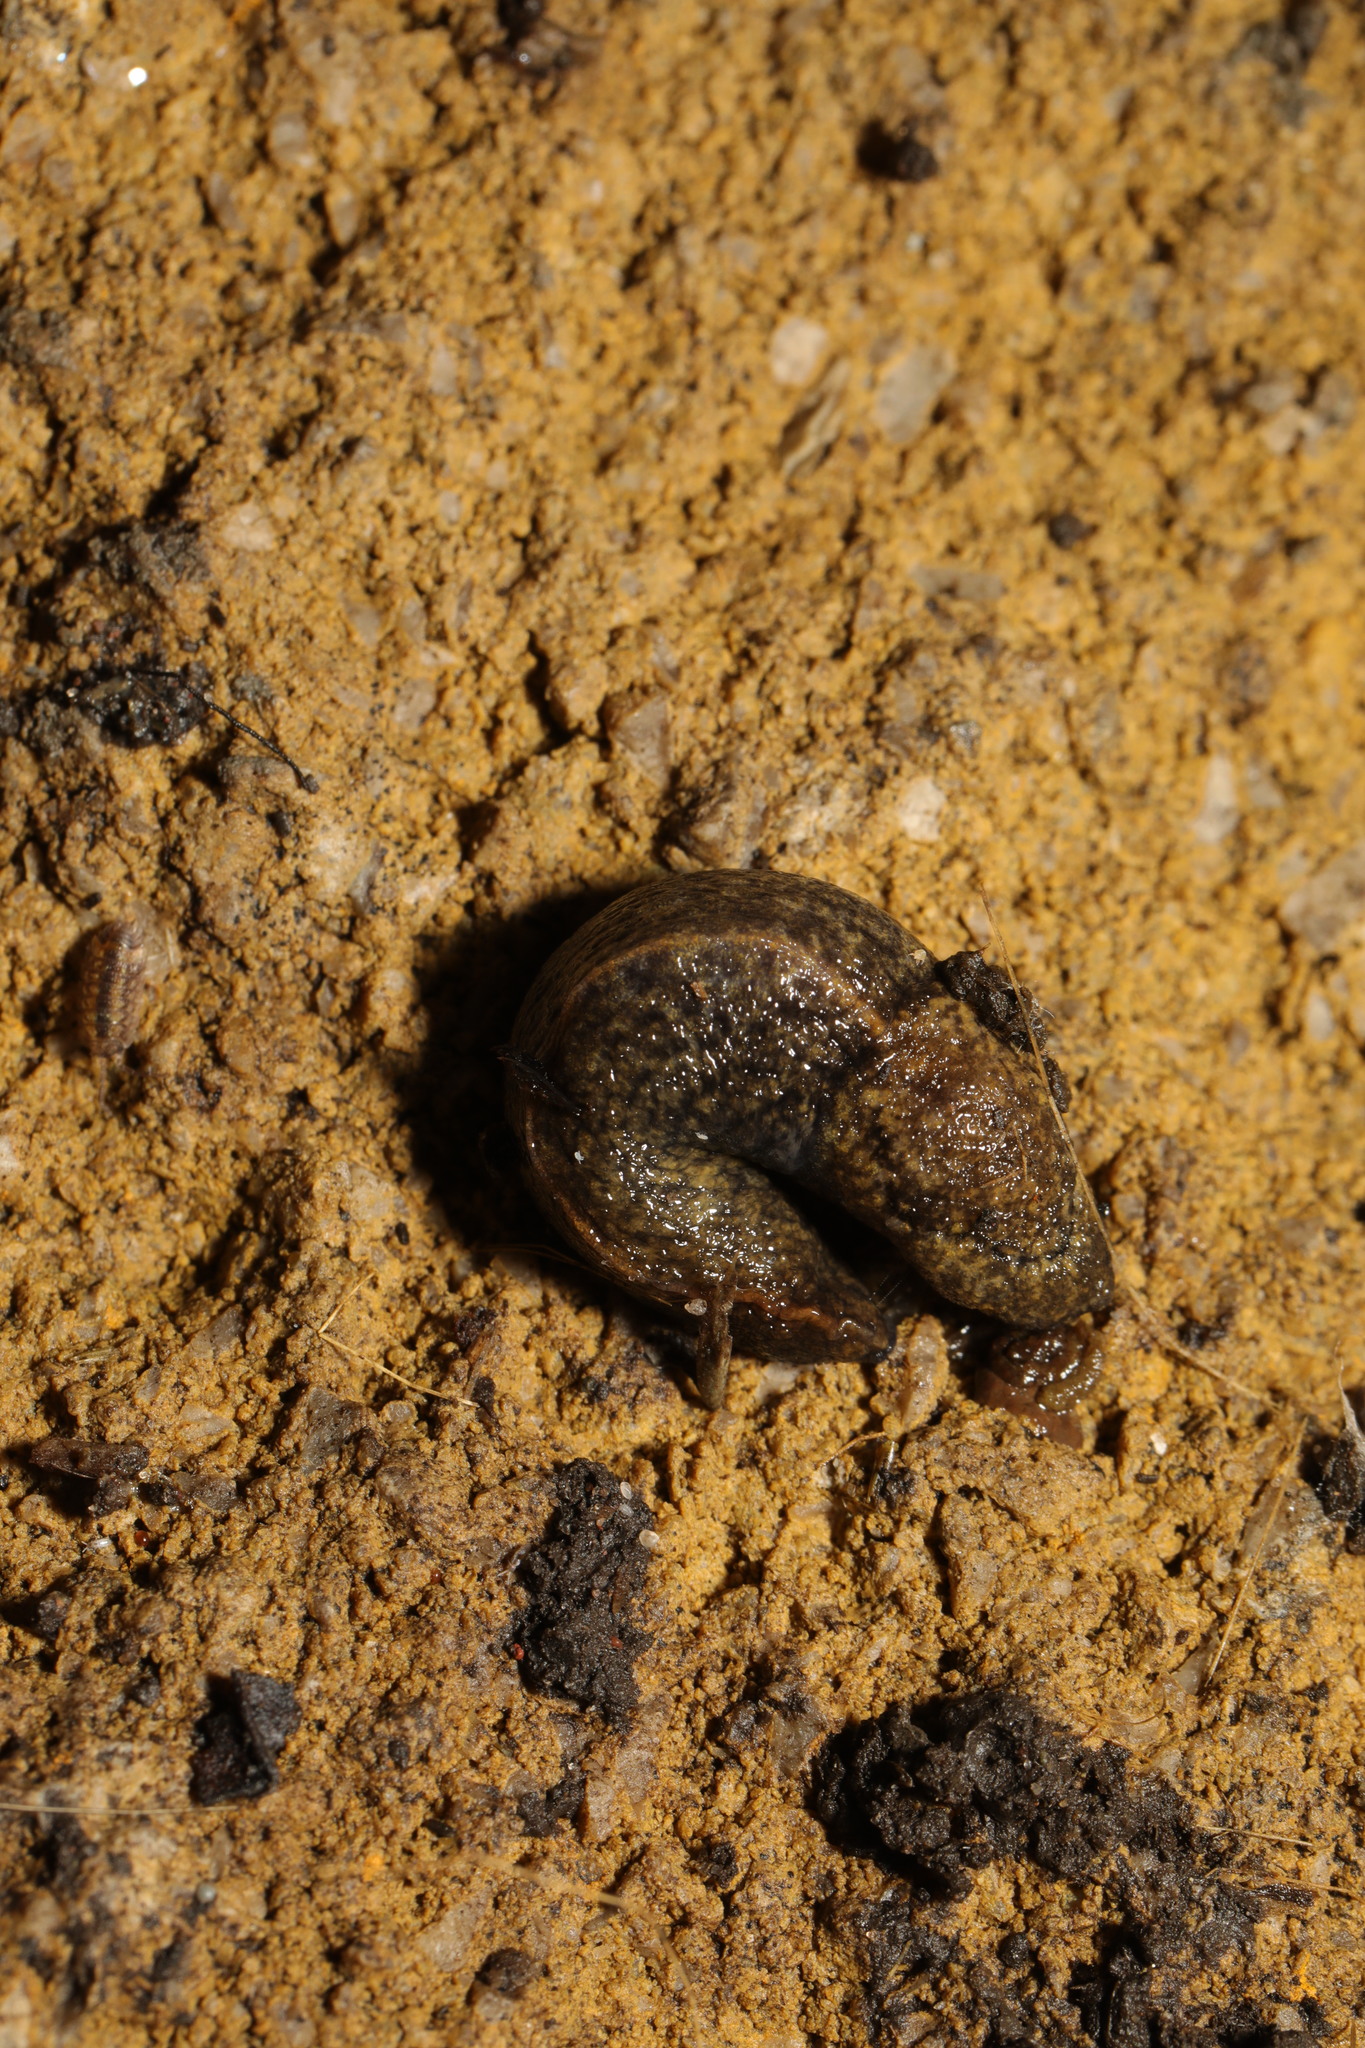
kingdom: Animalia
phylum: Mollusca
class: Gastropoda
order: Stylommatophora
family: Milacidae
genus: Tandonia
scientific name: Tandonia budapestensis
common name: Budapest slug
